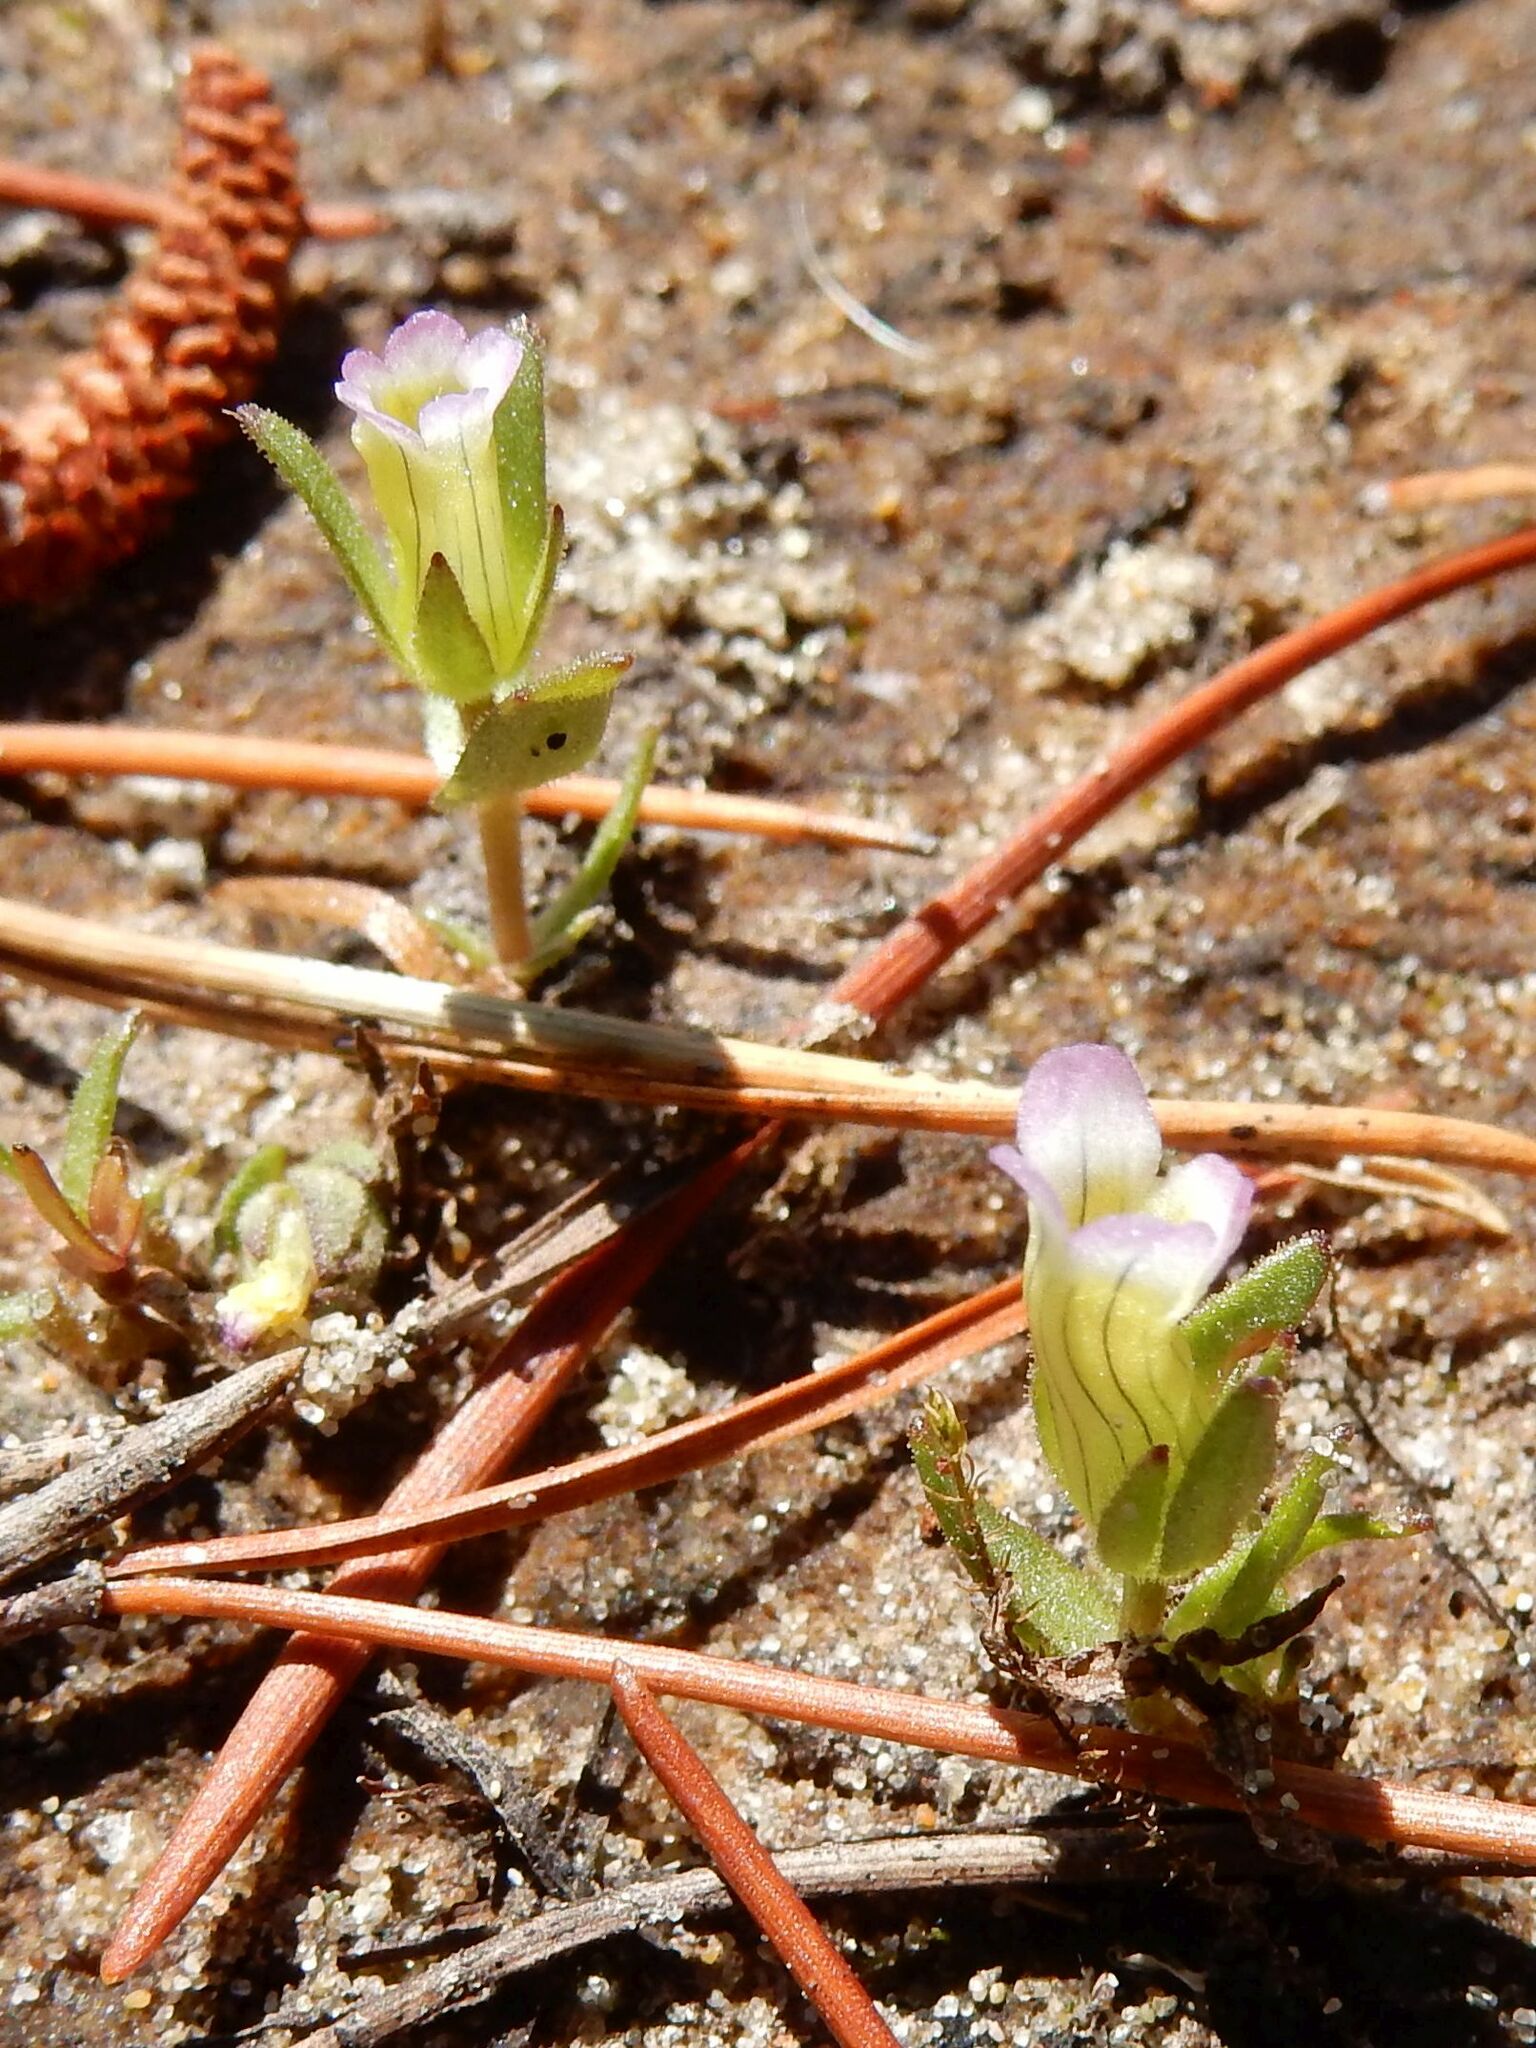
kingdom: Plantae
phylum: Tracheophyta
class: Magnoliopsida
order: Lamiales
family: Plantaginaceae
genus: Gratiola
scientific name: Gratiola ebracteata
